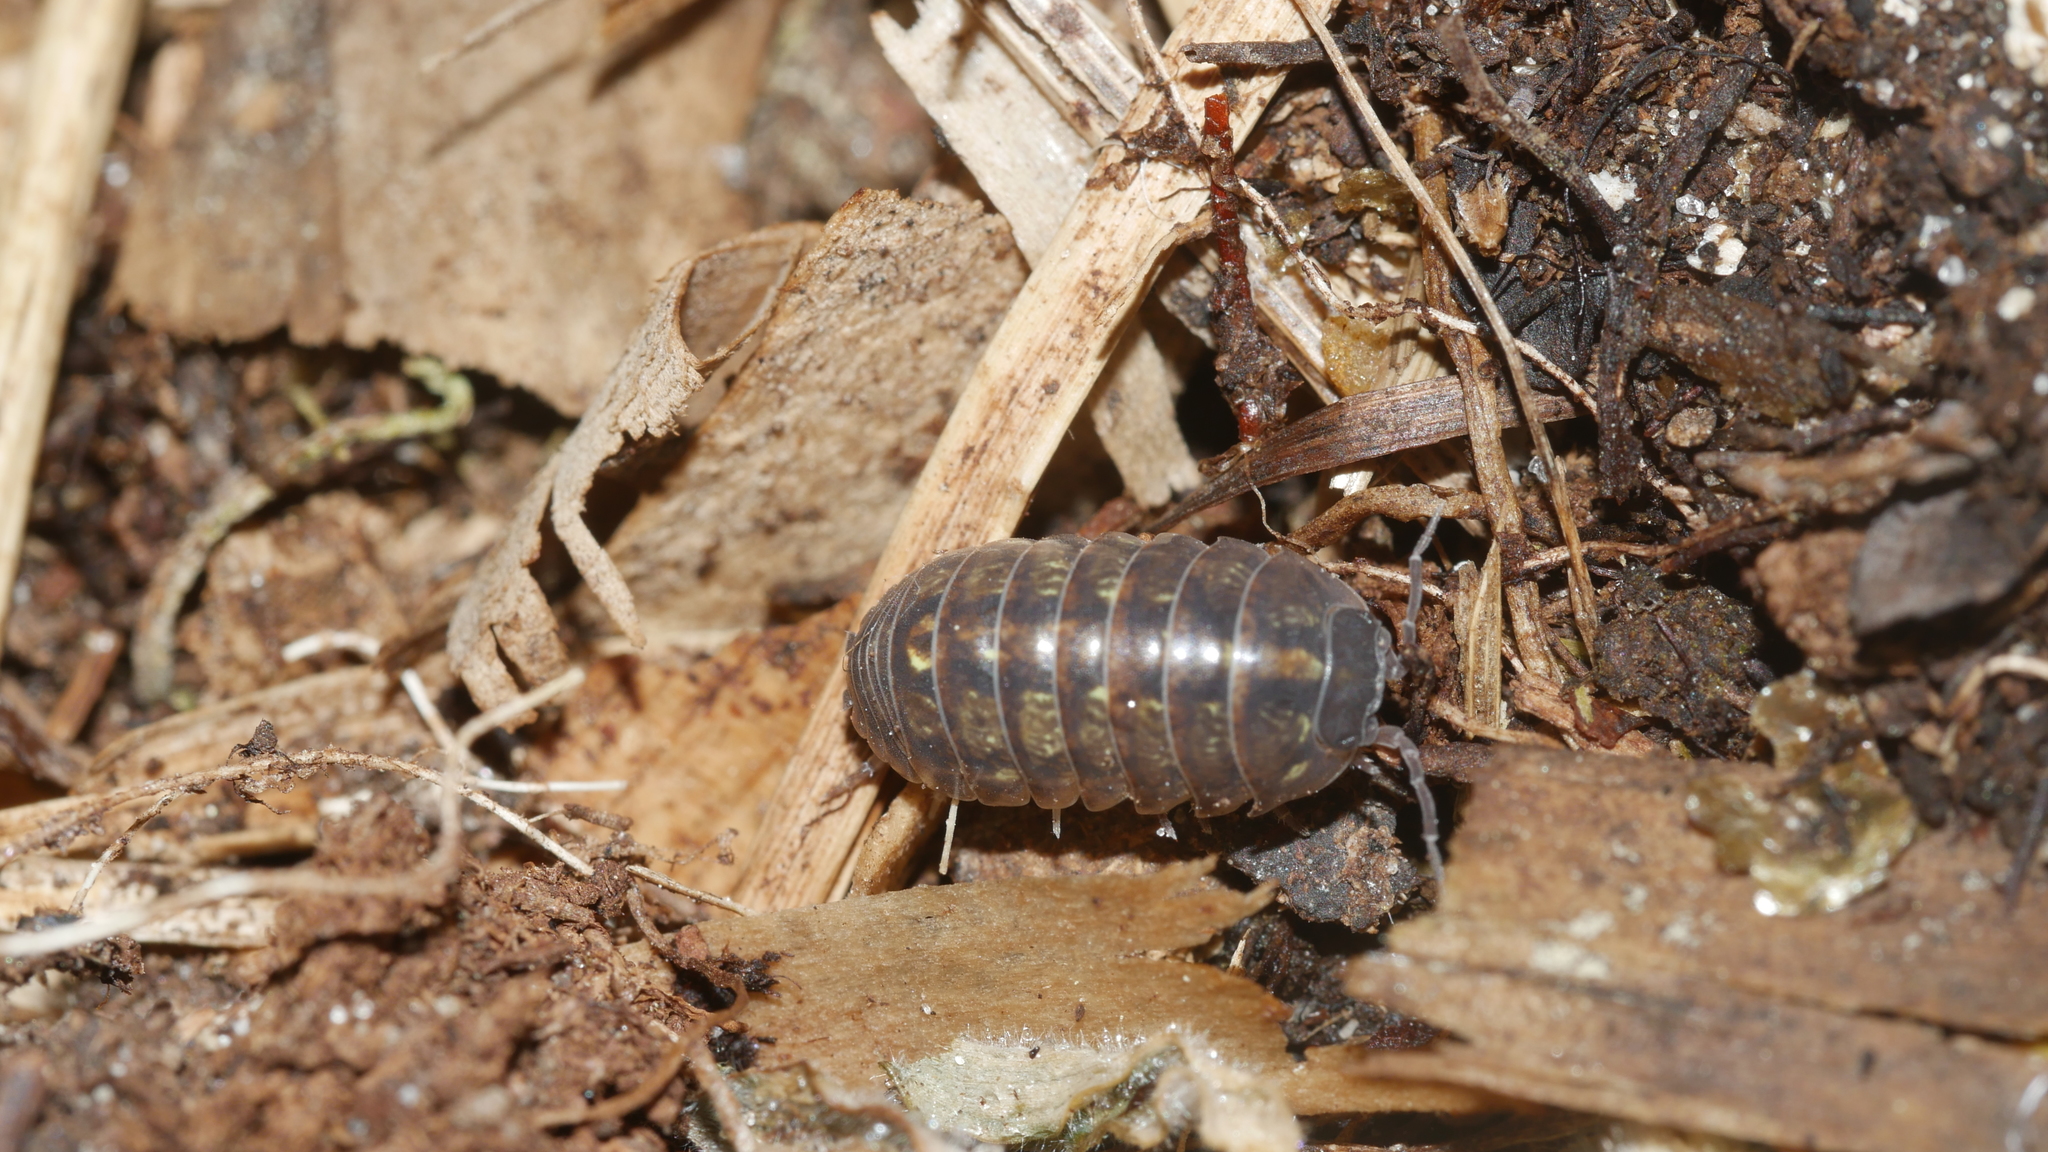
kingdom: Animalia
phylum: Arthropoda
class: Malacostraca
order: Isopoda
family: Armadillidiidae
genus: Armadillidium
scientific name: Armadillidium vulgare
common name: Common pill woodlouse
